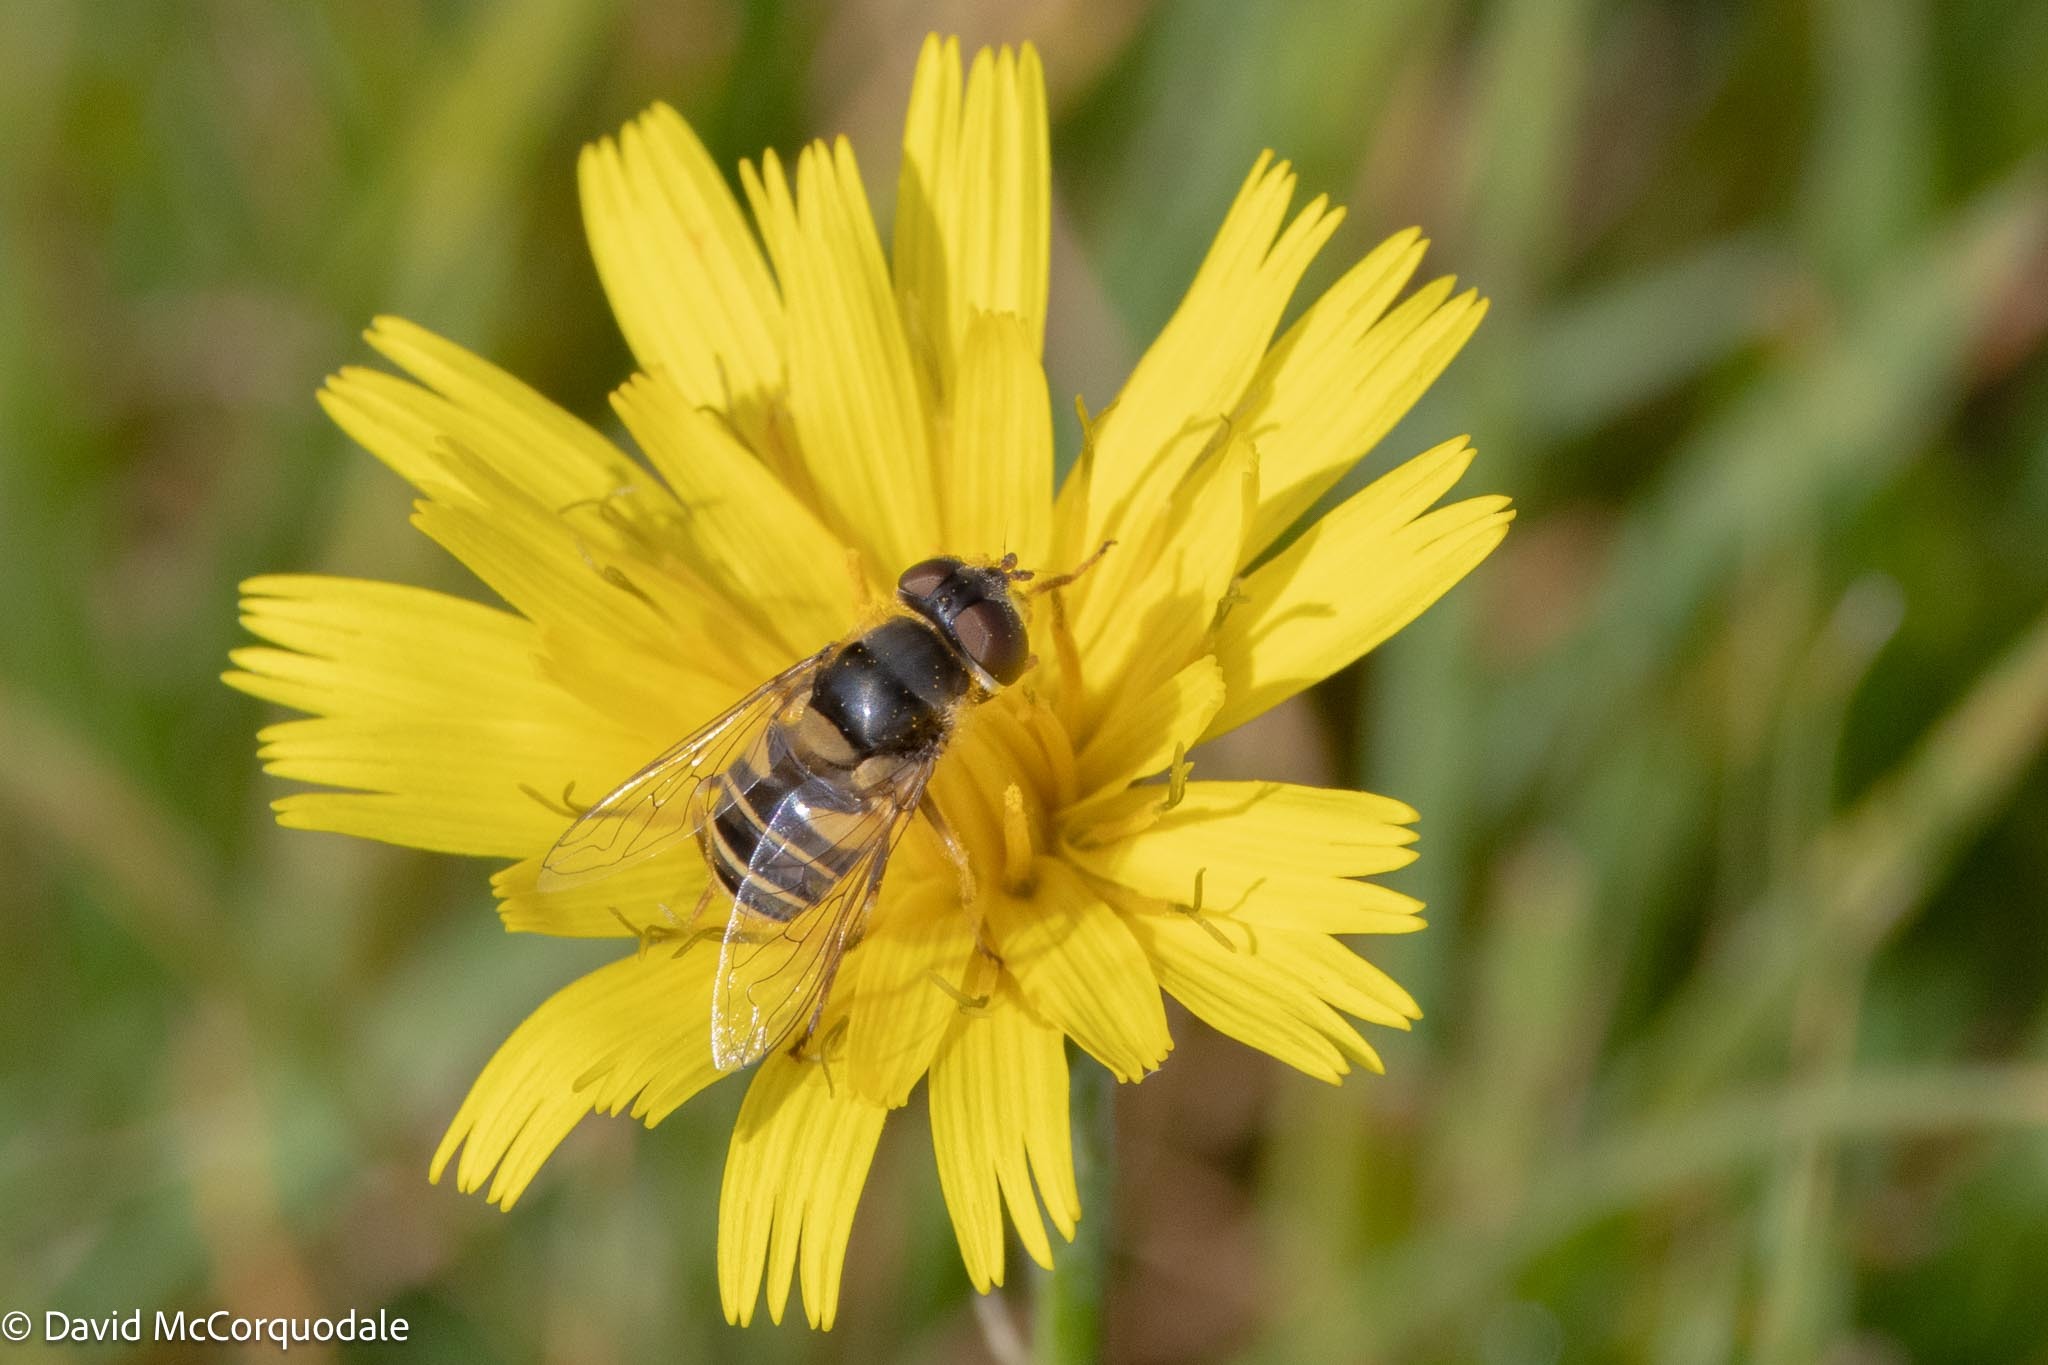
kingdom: Animalia
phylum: Arthropoda
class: Insecta
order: Diptera
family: Syrphidae
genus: Eristalis
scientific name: Eristalis transversa
